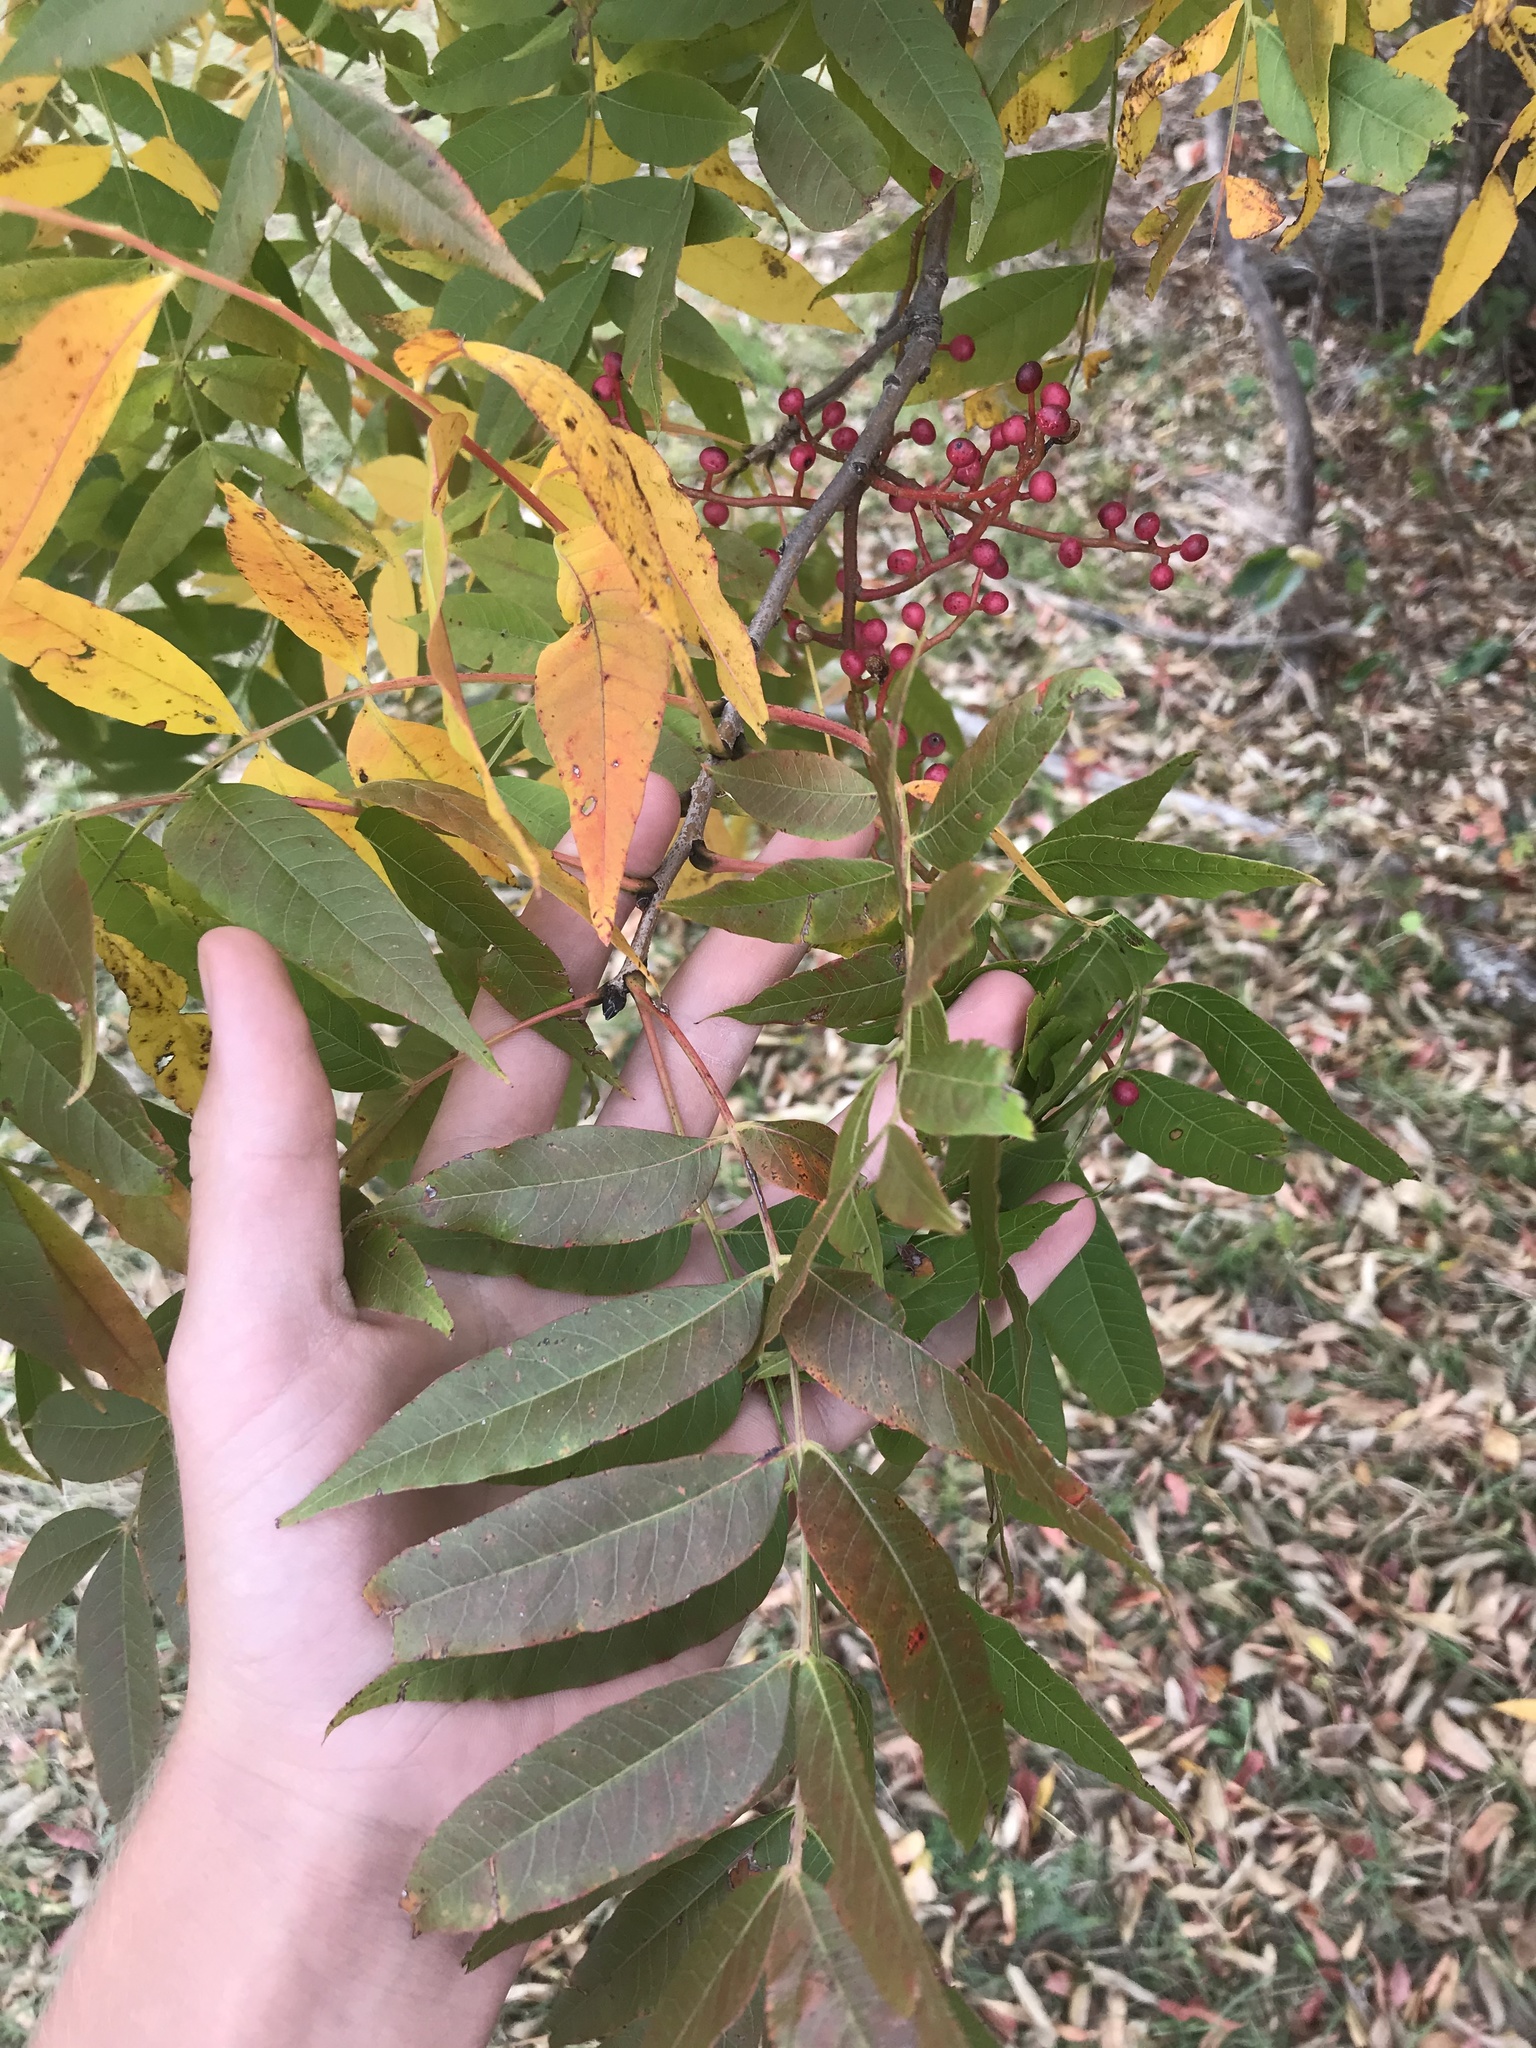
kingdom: Plantae
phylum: Tracheophyta
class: Magnoliopsida
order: Sapindales
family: Anacardiaceae
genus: Pistacia
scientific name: Pistacia chinensis
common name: Chinese pistache
